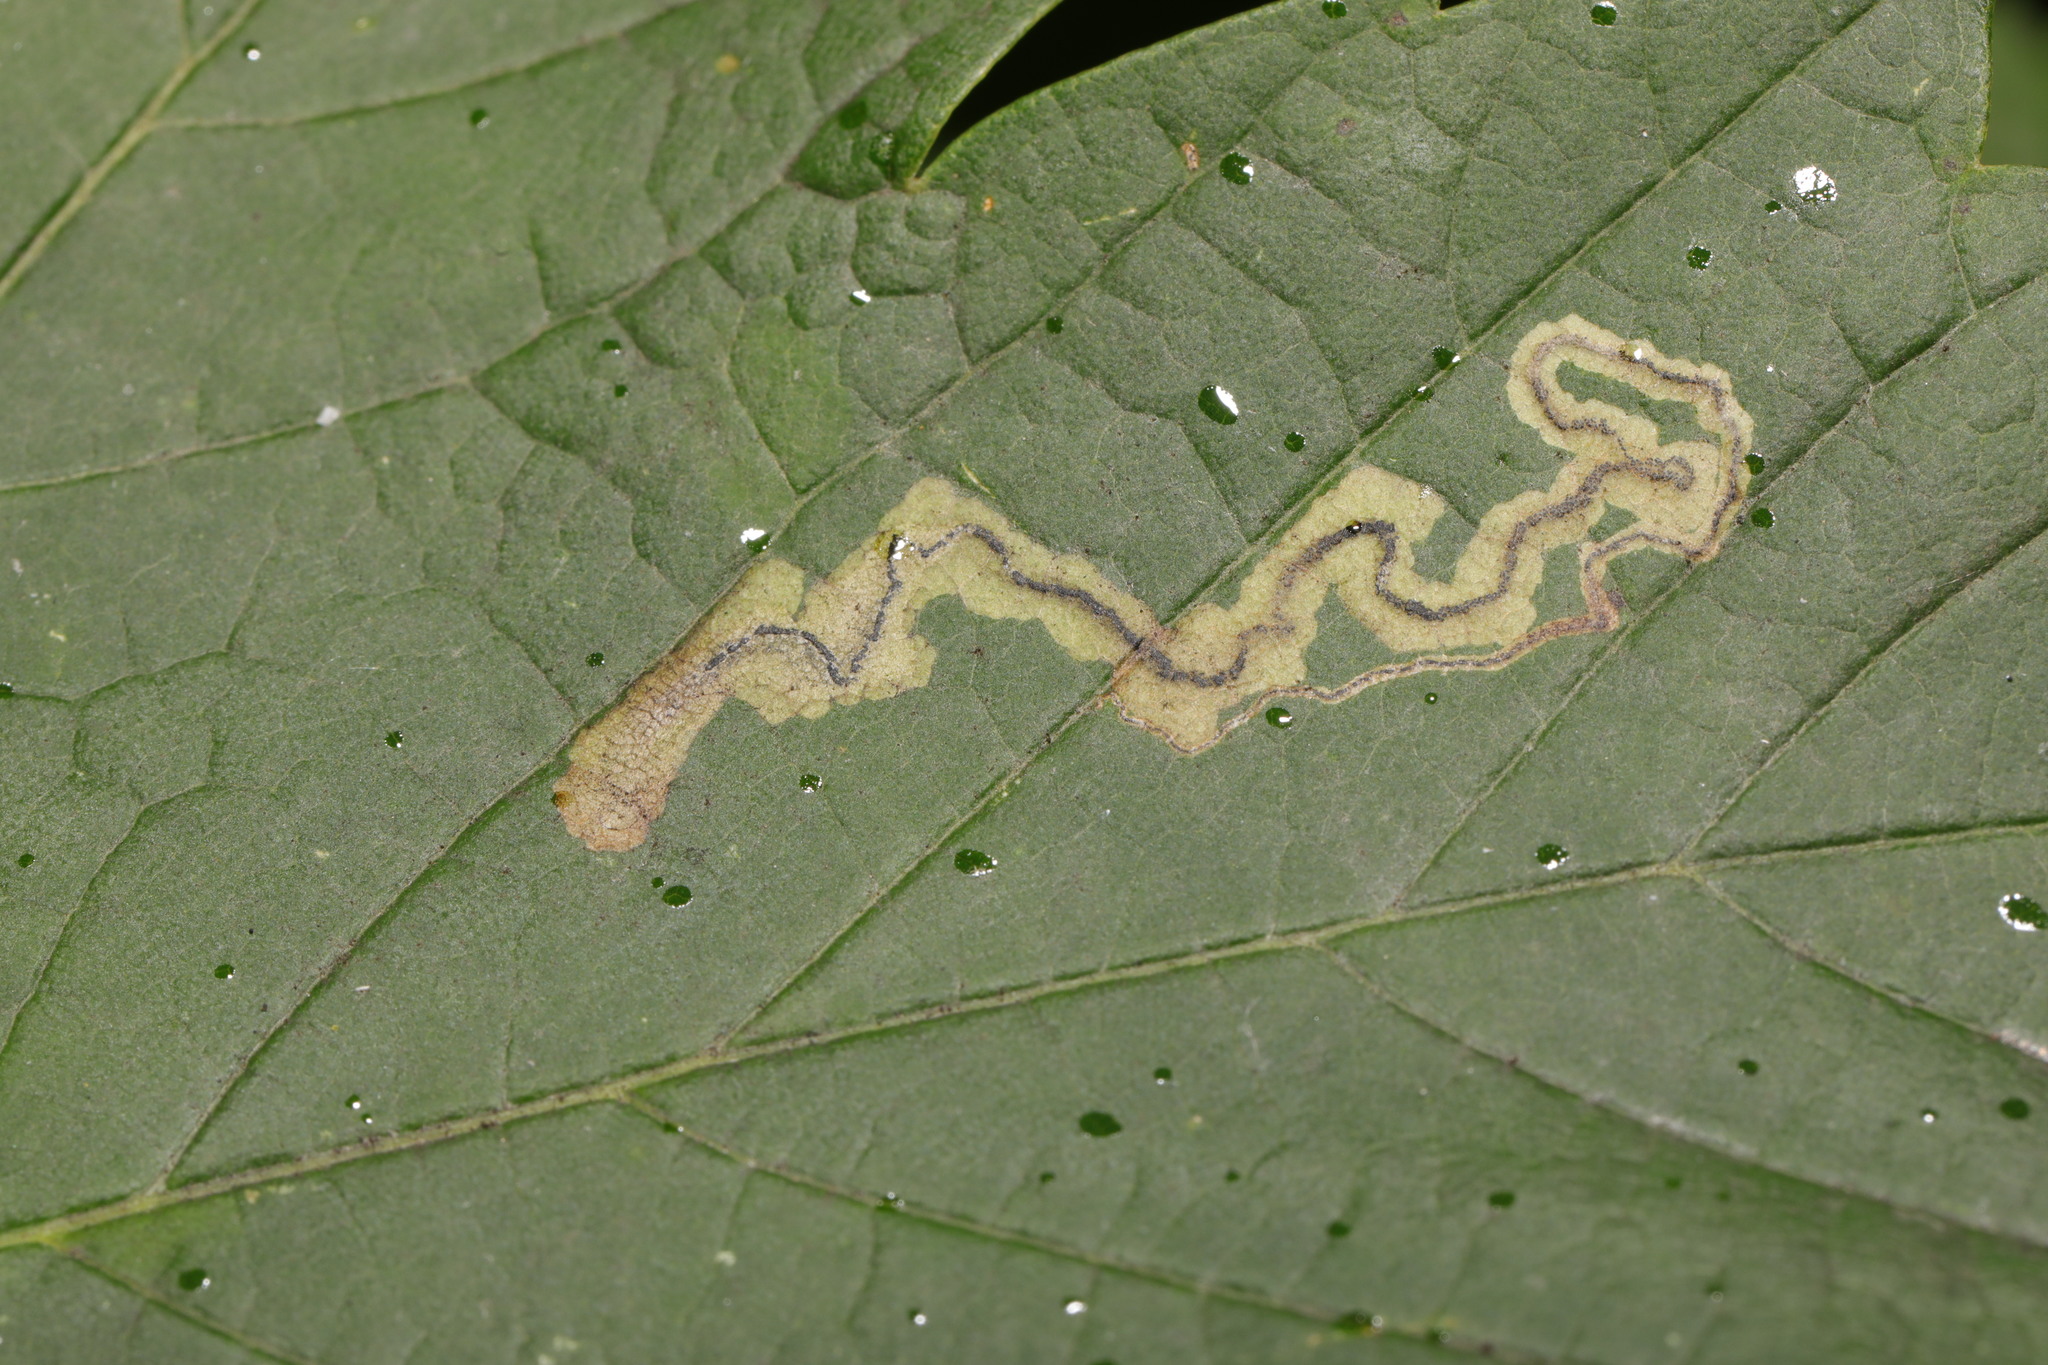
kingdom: Animalia
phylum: Arthropoda
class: Insecta
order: Lepidoptera
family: Nepticulidae
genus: Stigmella
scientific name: Stigmella speciosa
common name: Barred sycamore pigmy
